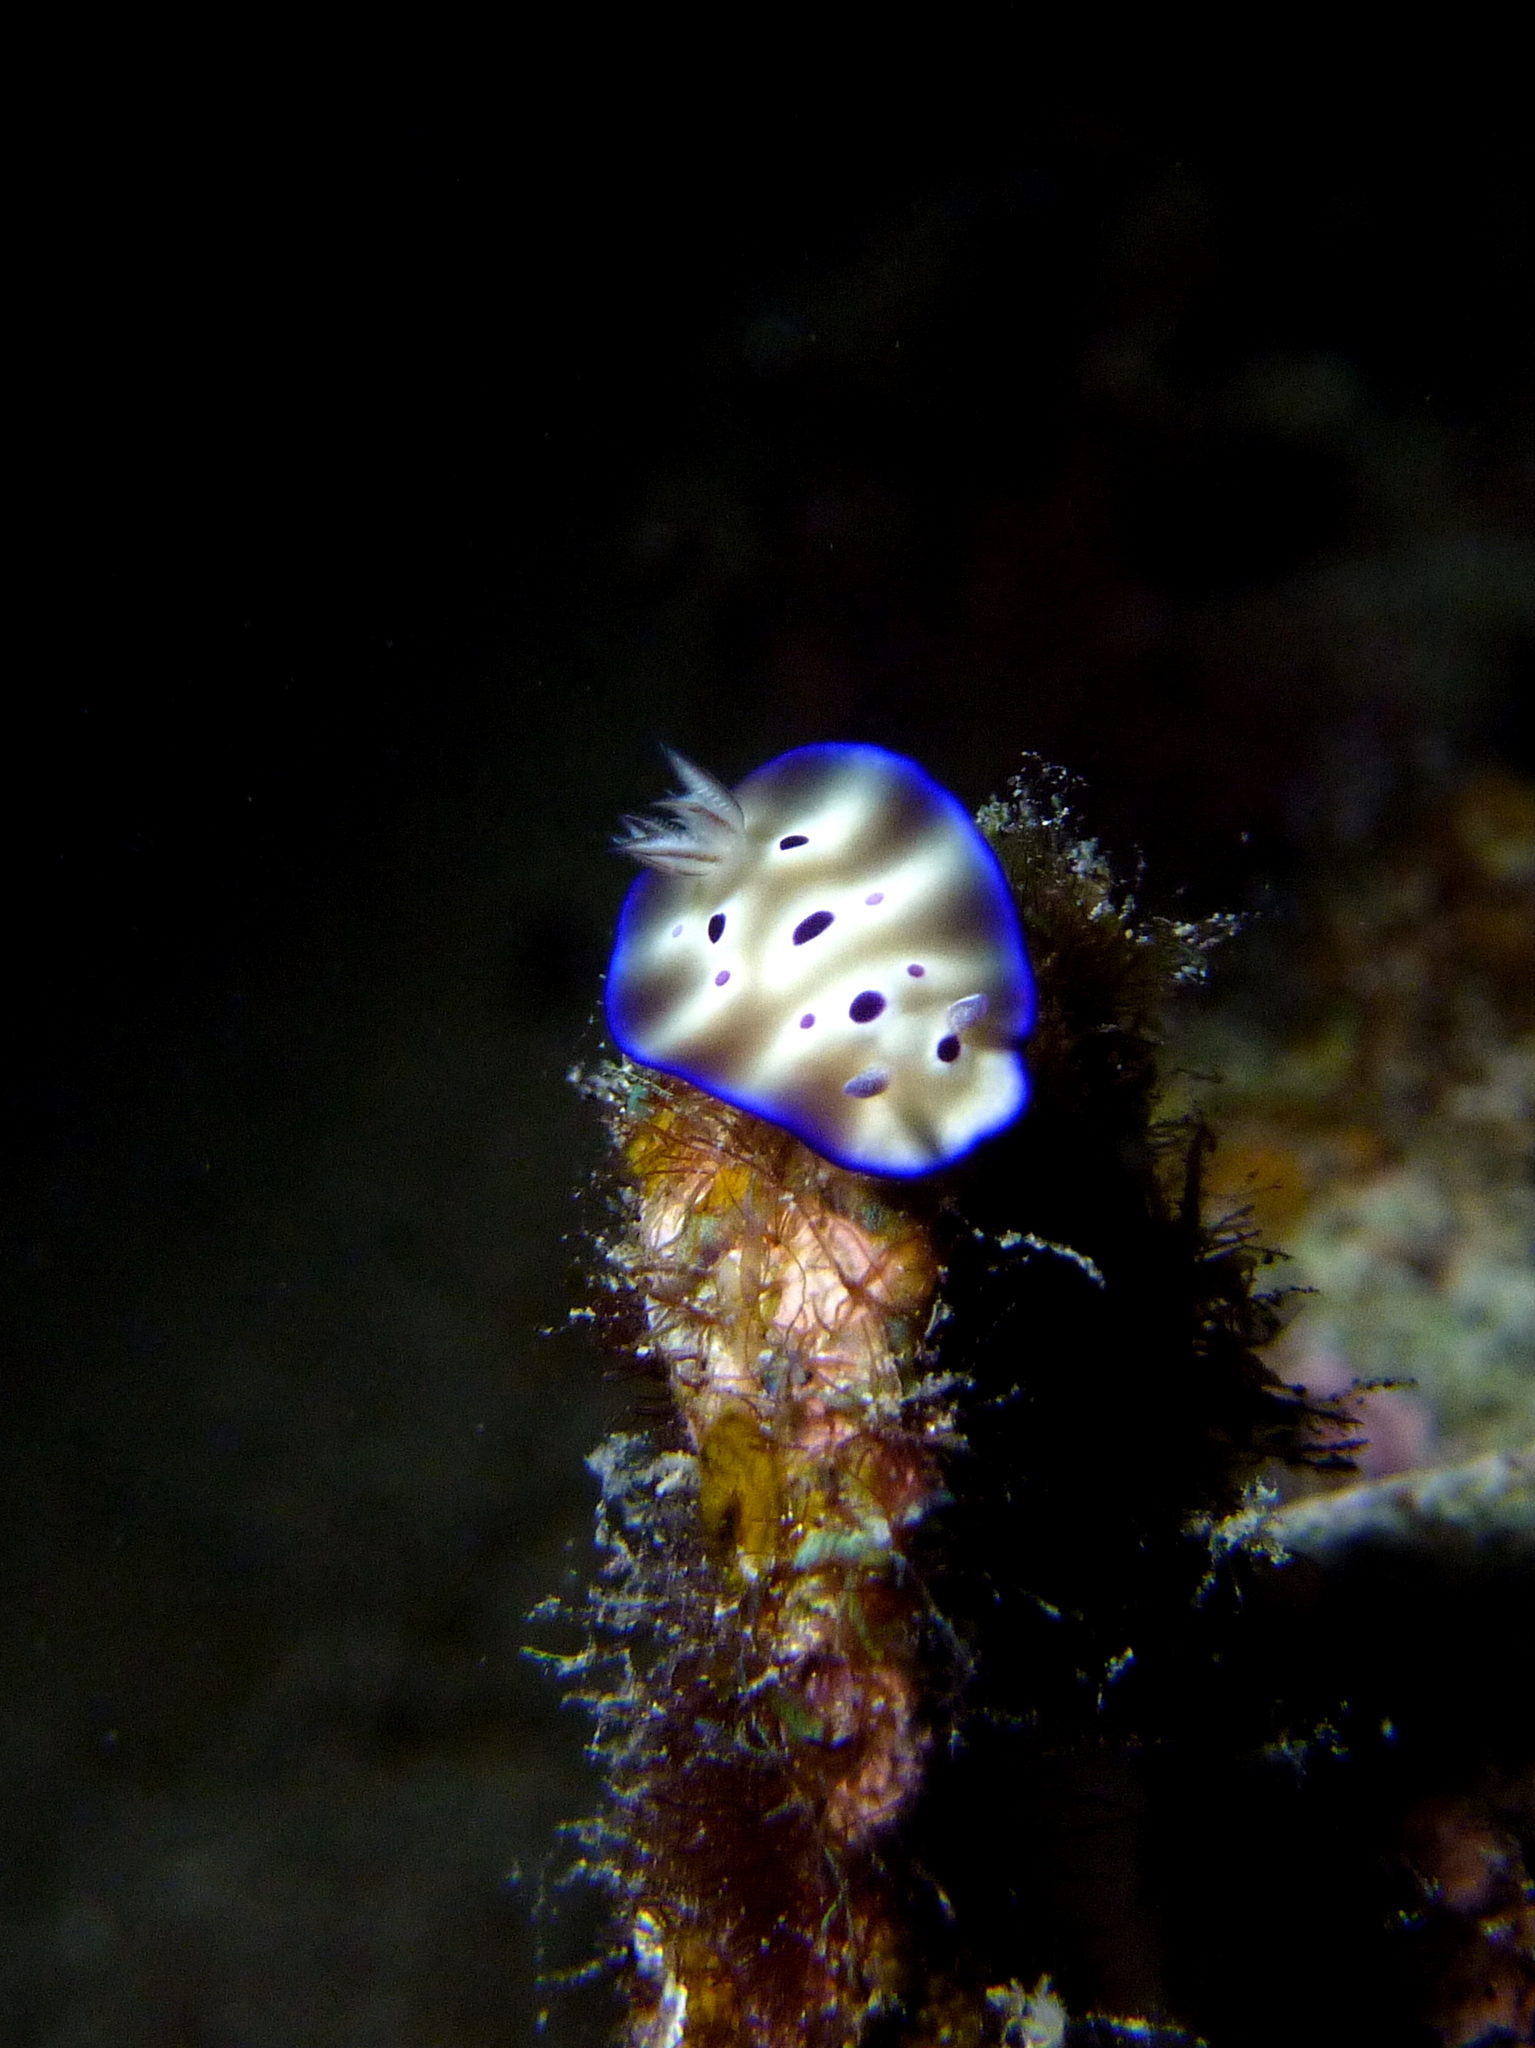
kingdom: Animalia
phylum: Mollusca
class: Gastropoda
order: Nudibranchia
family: Chromodorididae
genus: Hypselodoris
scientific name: Hypselodoris tryoni
